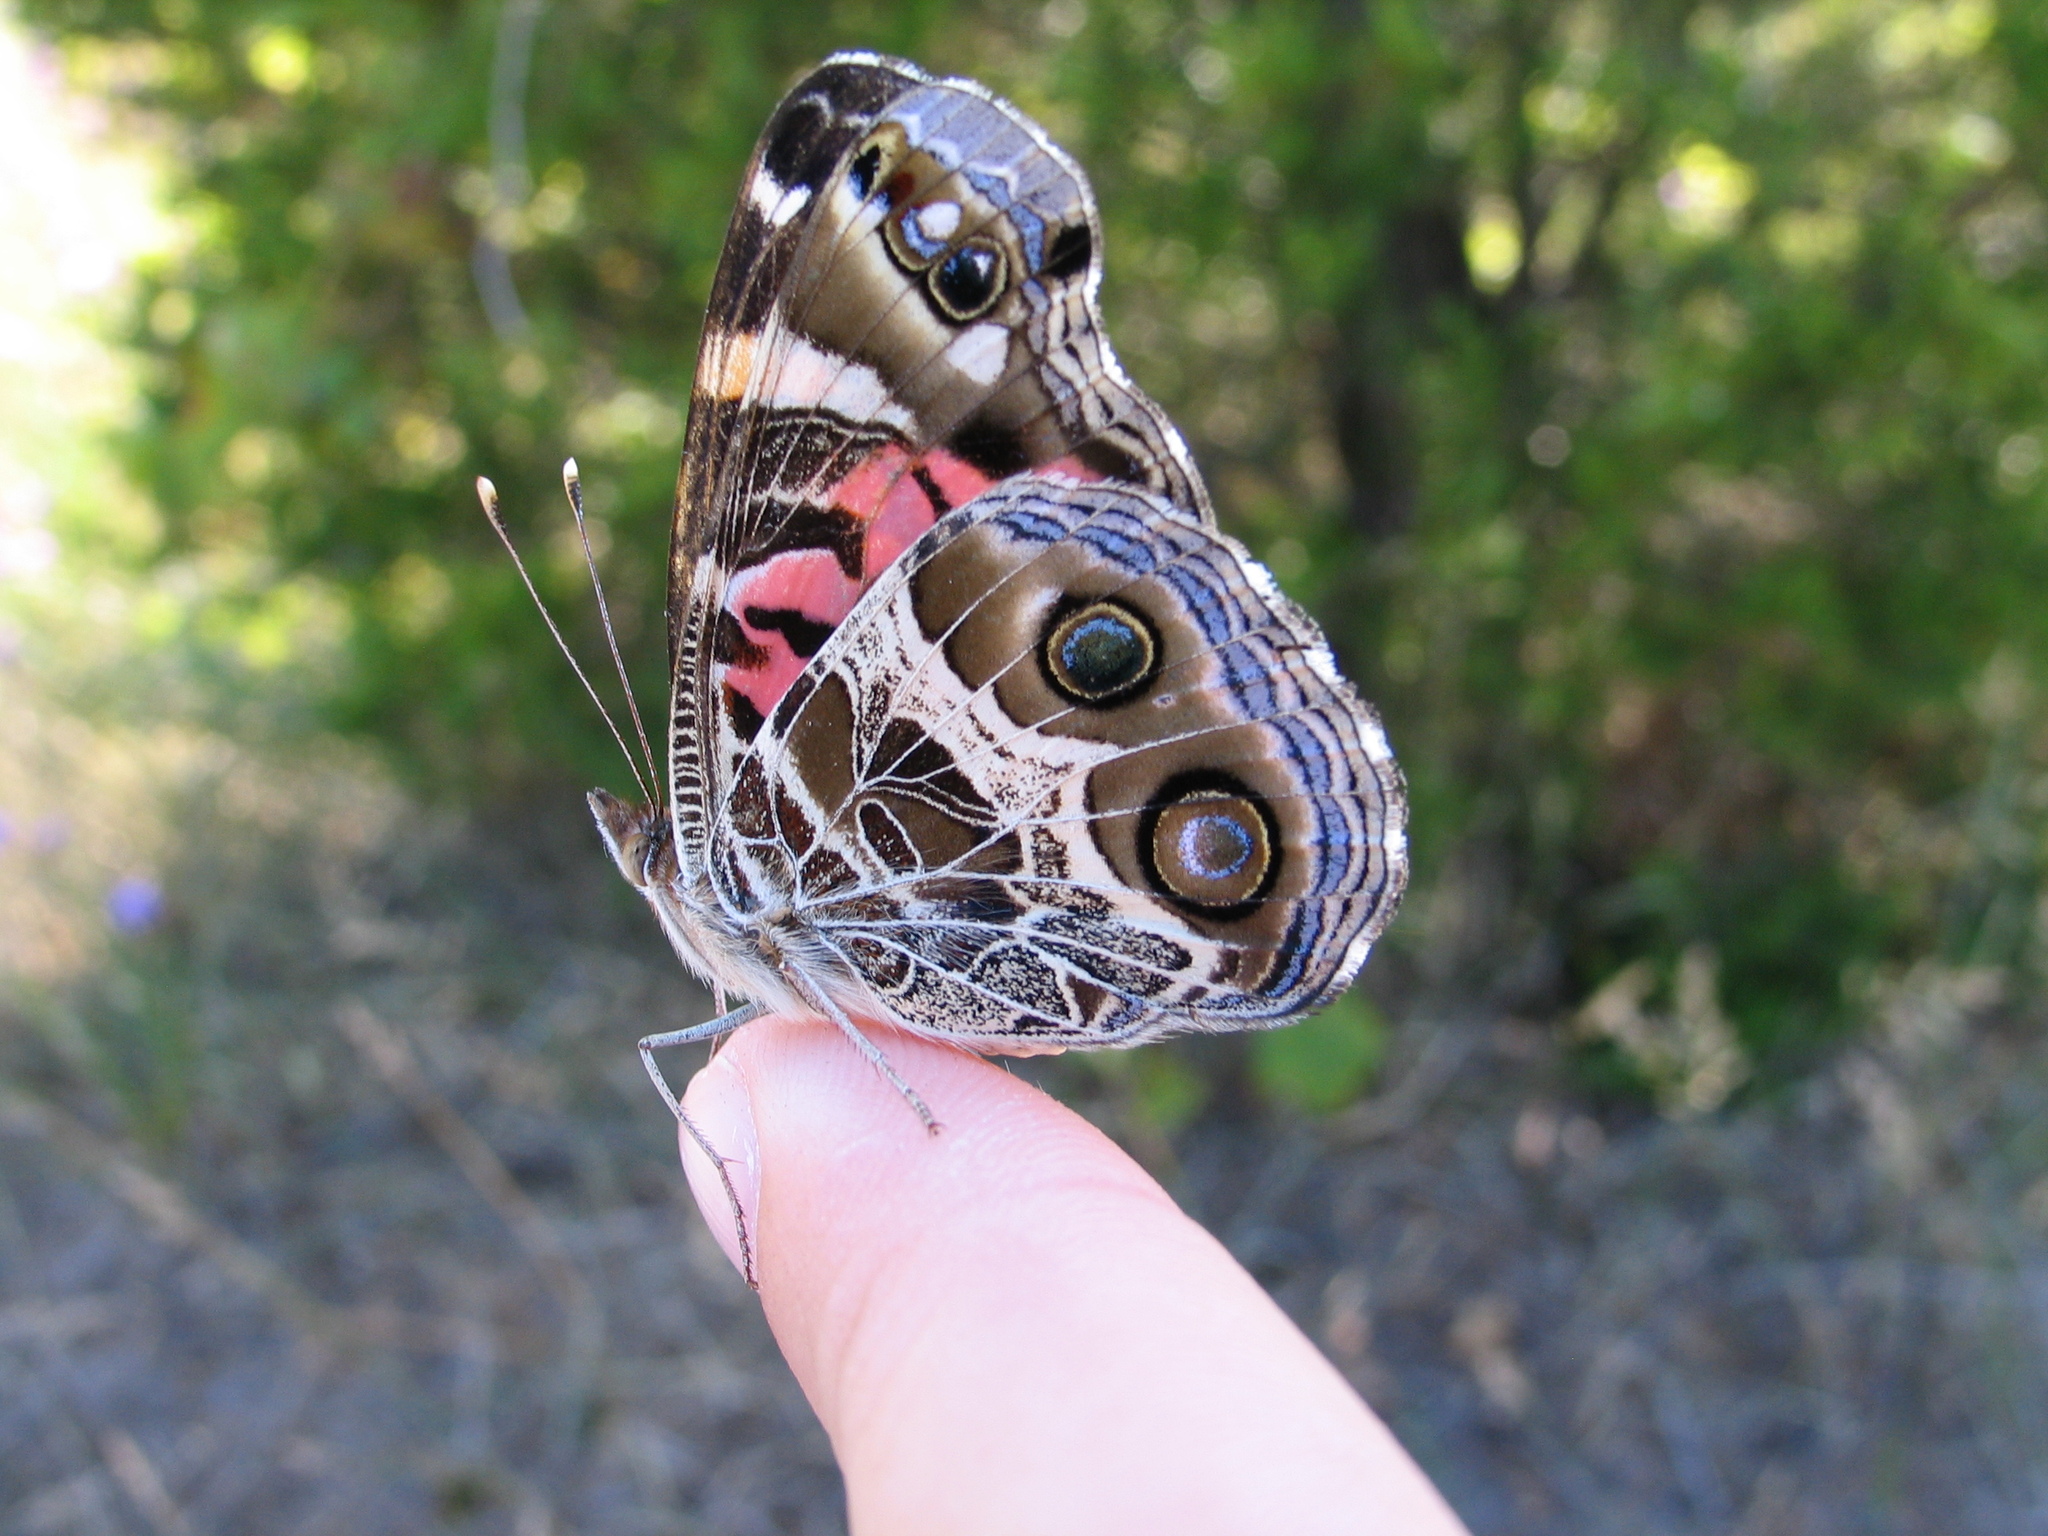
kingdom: Animalia
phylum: Arthropoda
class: Insecta
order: Lepidoptera
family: Nymphalidae
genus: Vanessa
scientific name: Vanessa virginiensis
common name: American lady
